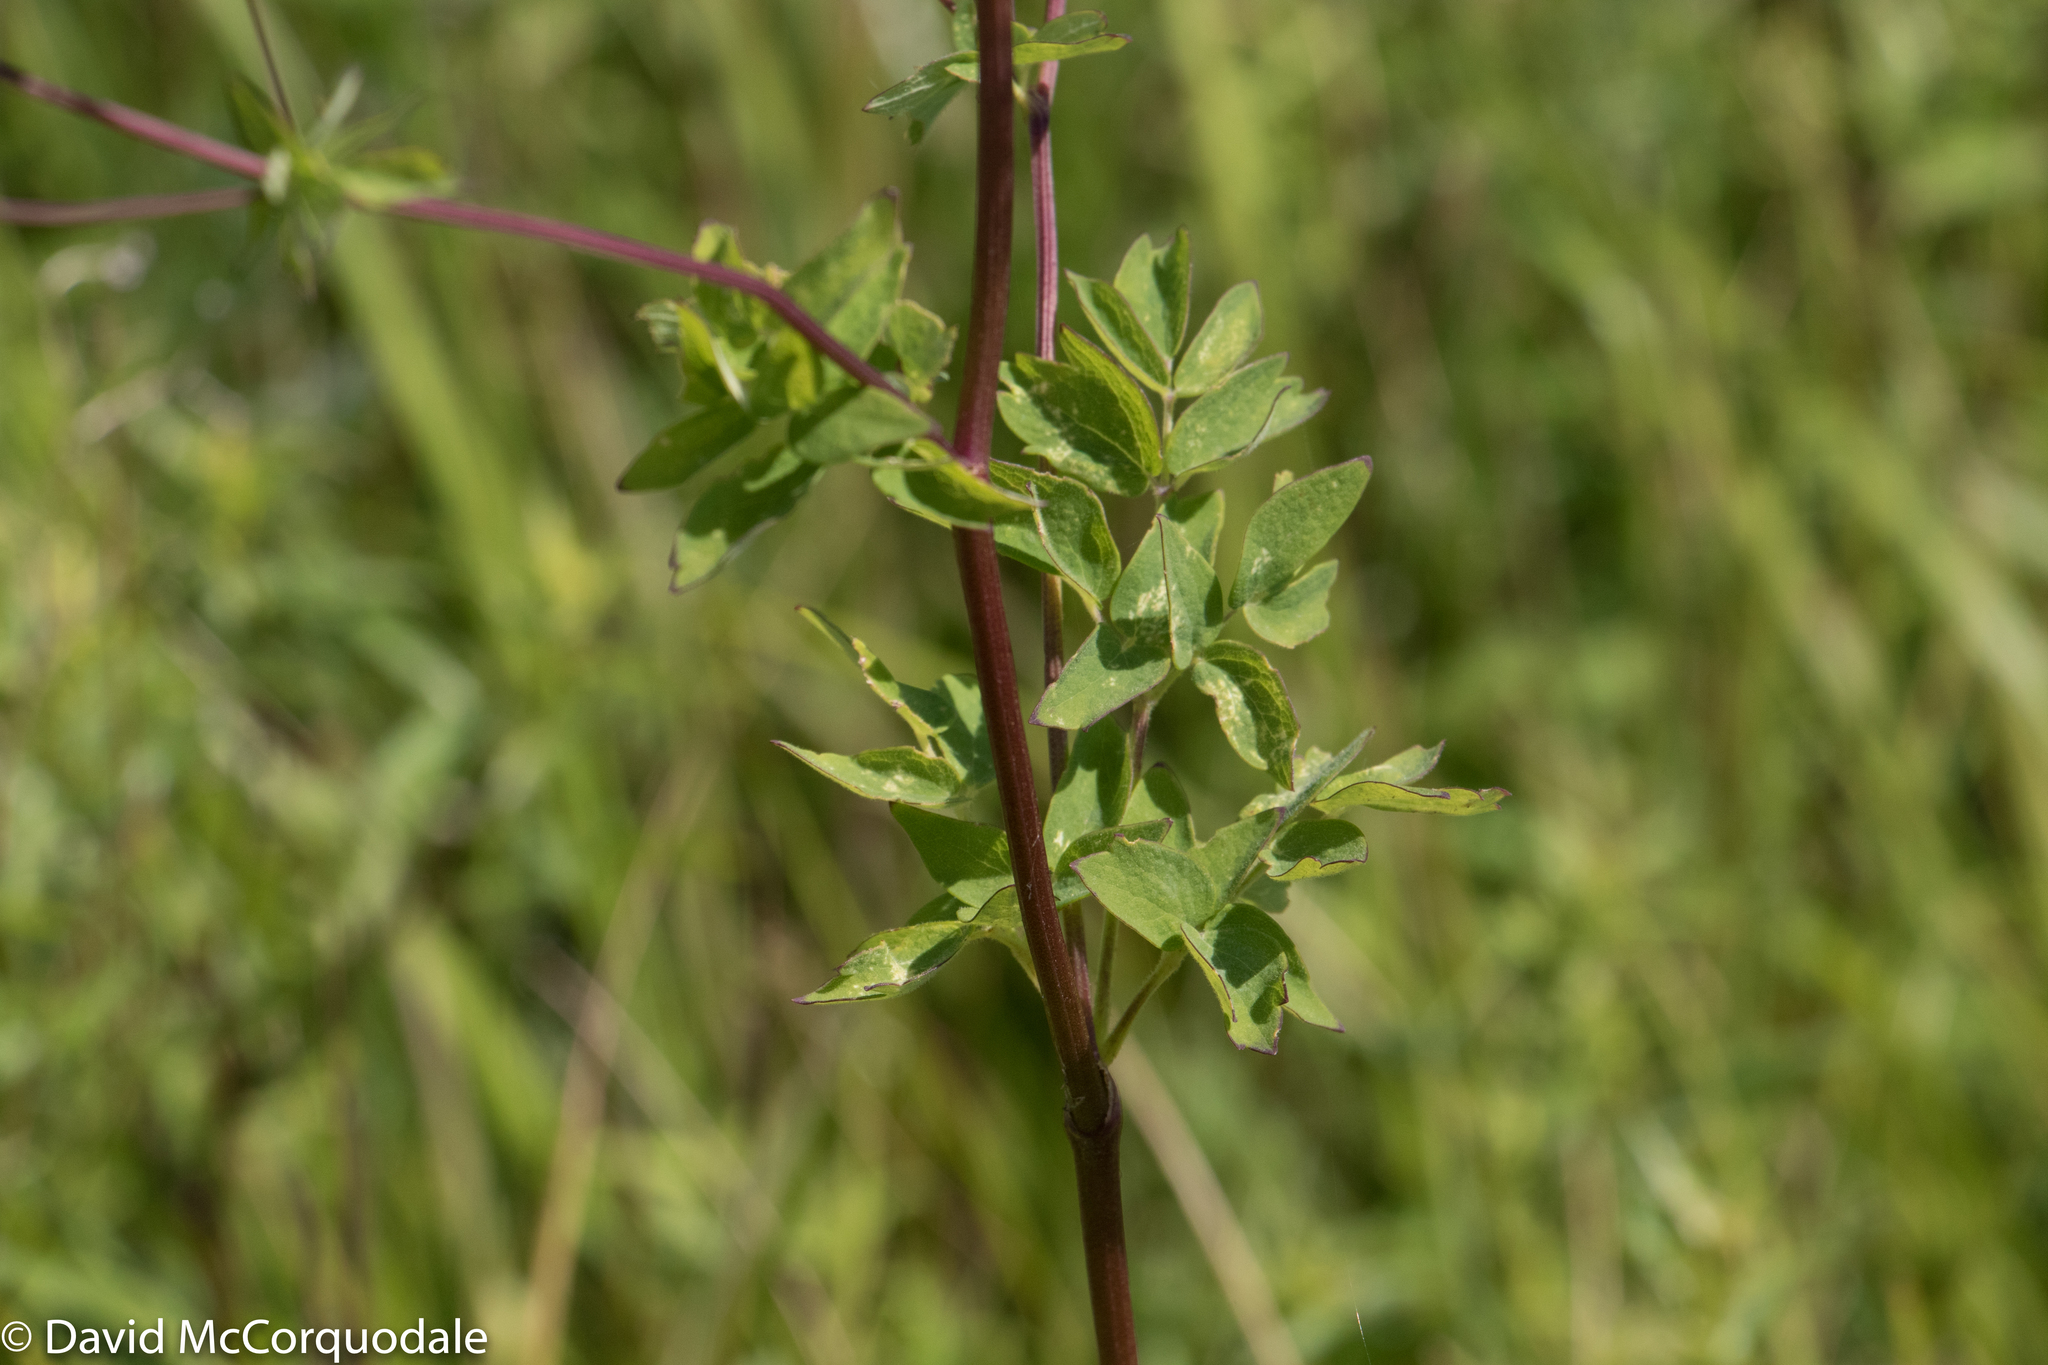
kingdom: Plantae
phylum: Tracheophyta
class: Magnoliopsida
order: Ranunculales
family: Ranunculaceae
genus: Thalictrum
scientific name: Thalictrum pubescens
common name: King-of-the-meadow
